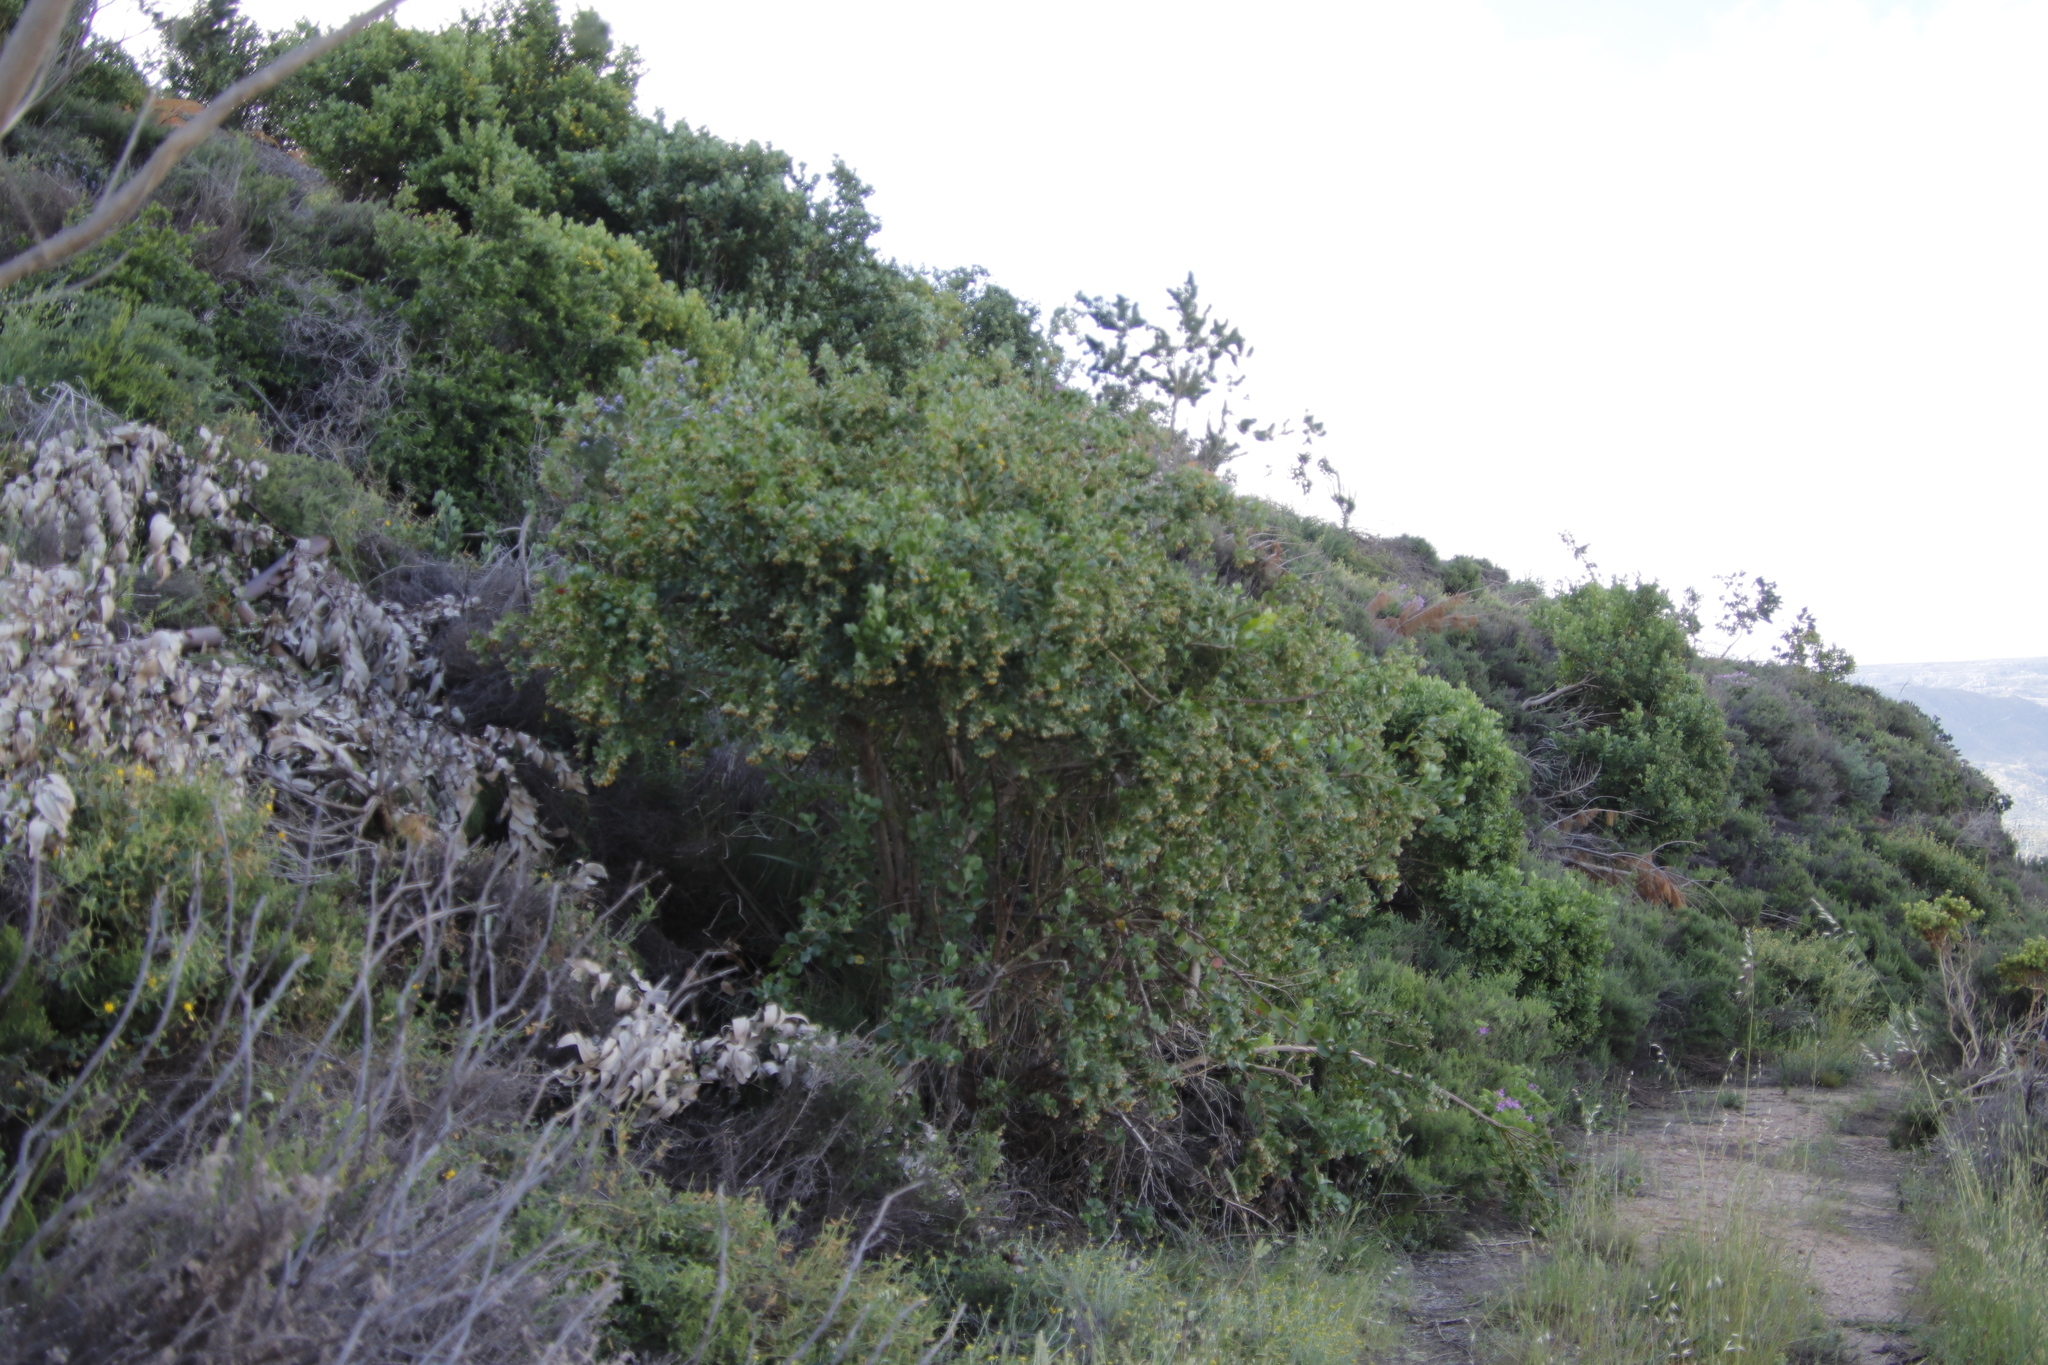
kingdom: Plantae
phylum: Tracheophyta
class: Magnoliopsida
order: Asterales
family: Asteraceae
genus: Osteospermum
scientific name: Osteospermum moniliferum
